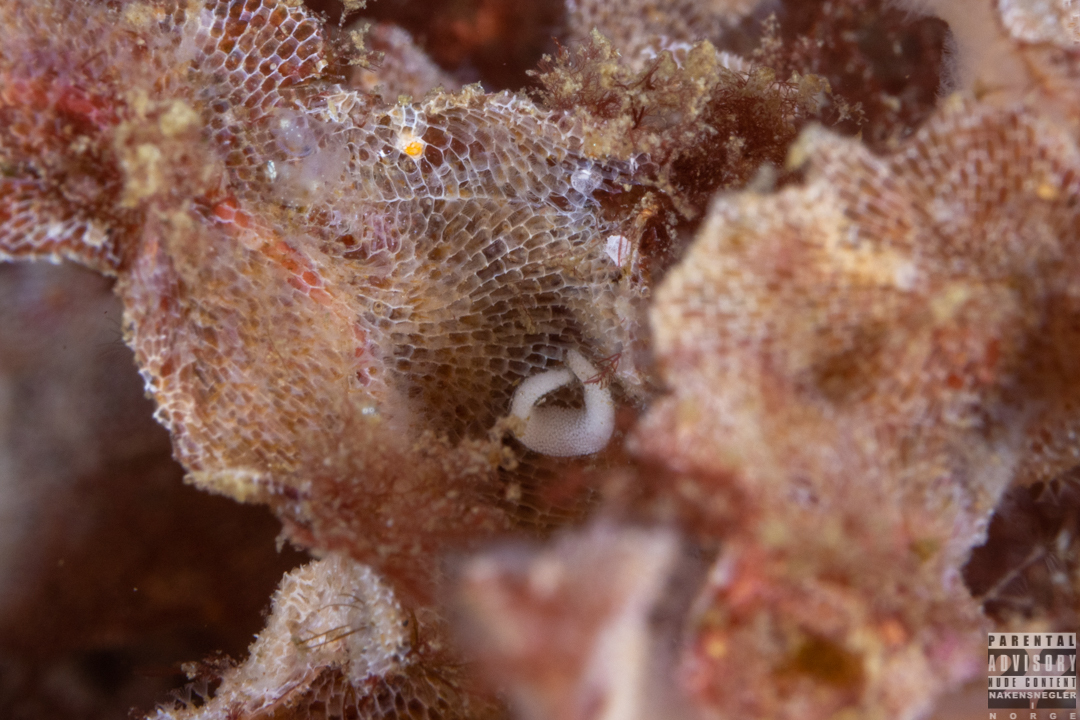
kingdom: Animalia
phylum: Mollusca
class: Gastropoda
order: Nudibranchia
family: Polyceridae
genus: Limacia
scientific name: Limacia clavigera
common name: Orange-clubbed sea slug
